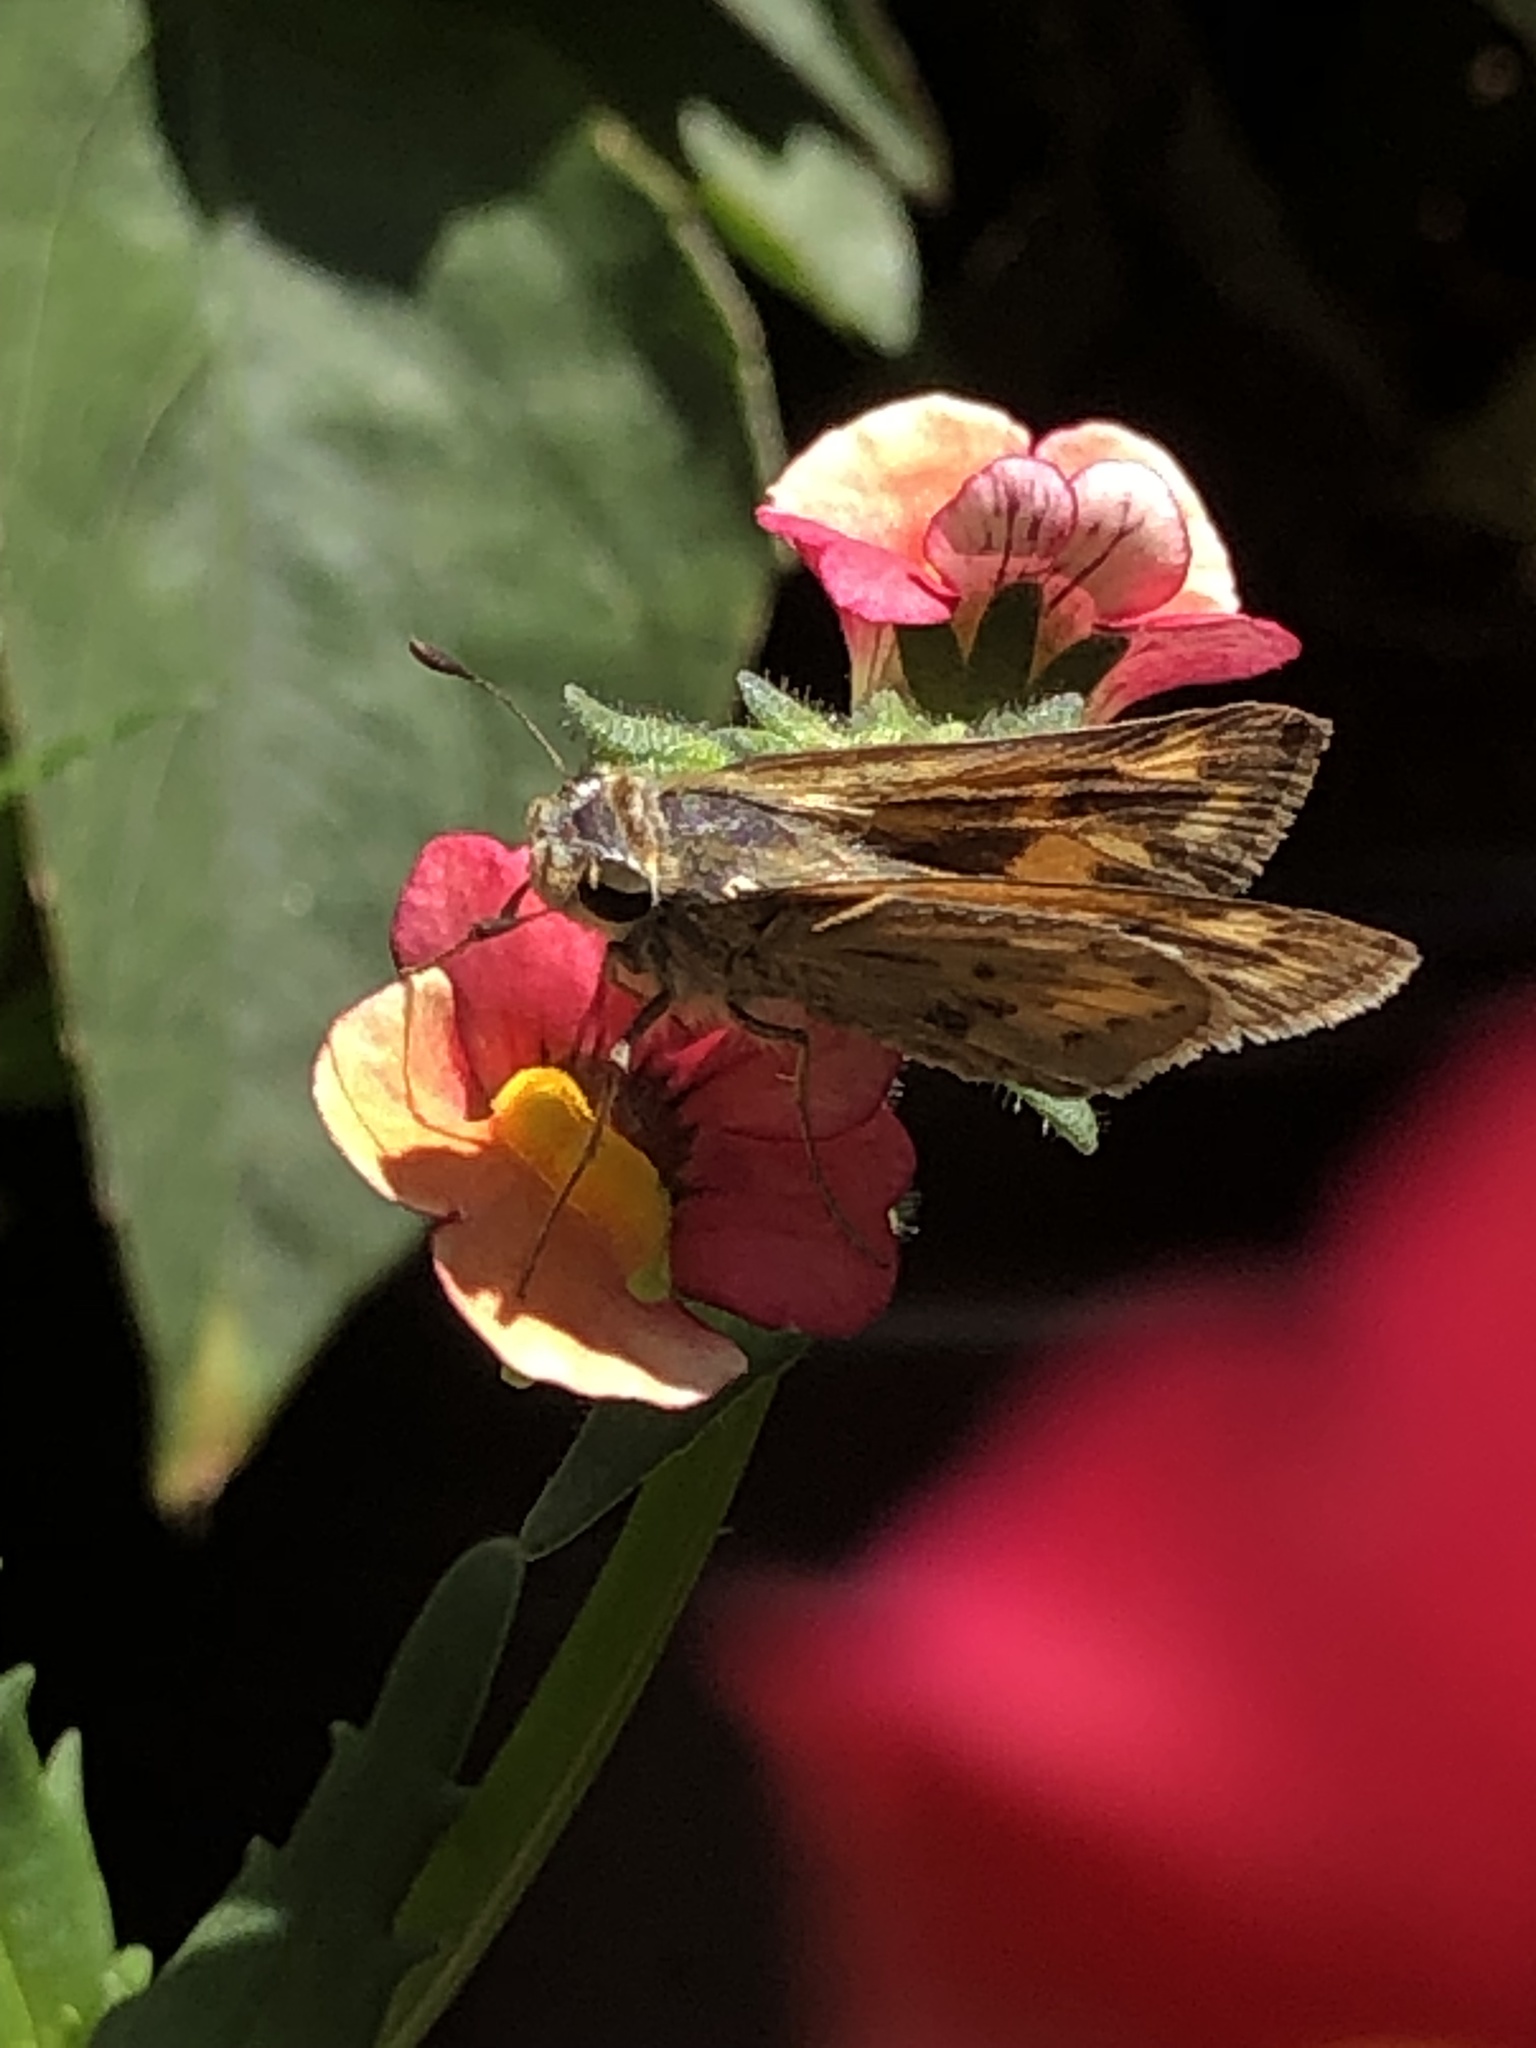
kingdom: Animalia
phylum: Arthropoda
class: Insecta
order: Lepidoptera
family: Hesperiidae
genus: Hylephila
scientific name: Hylephila phyleus
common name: Fiery skipper
